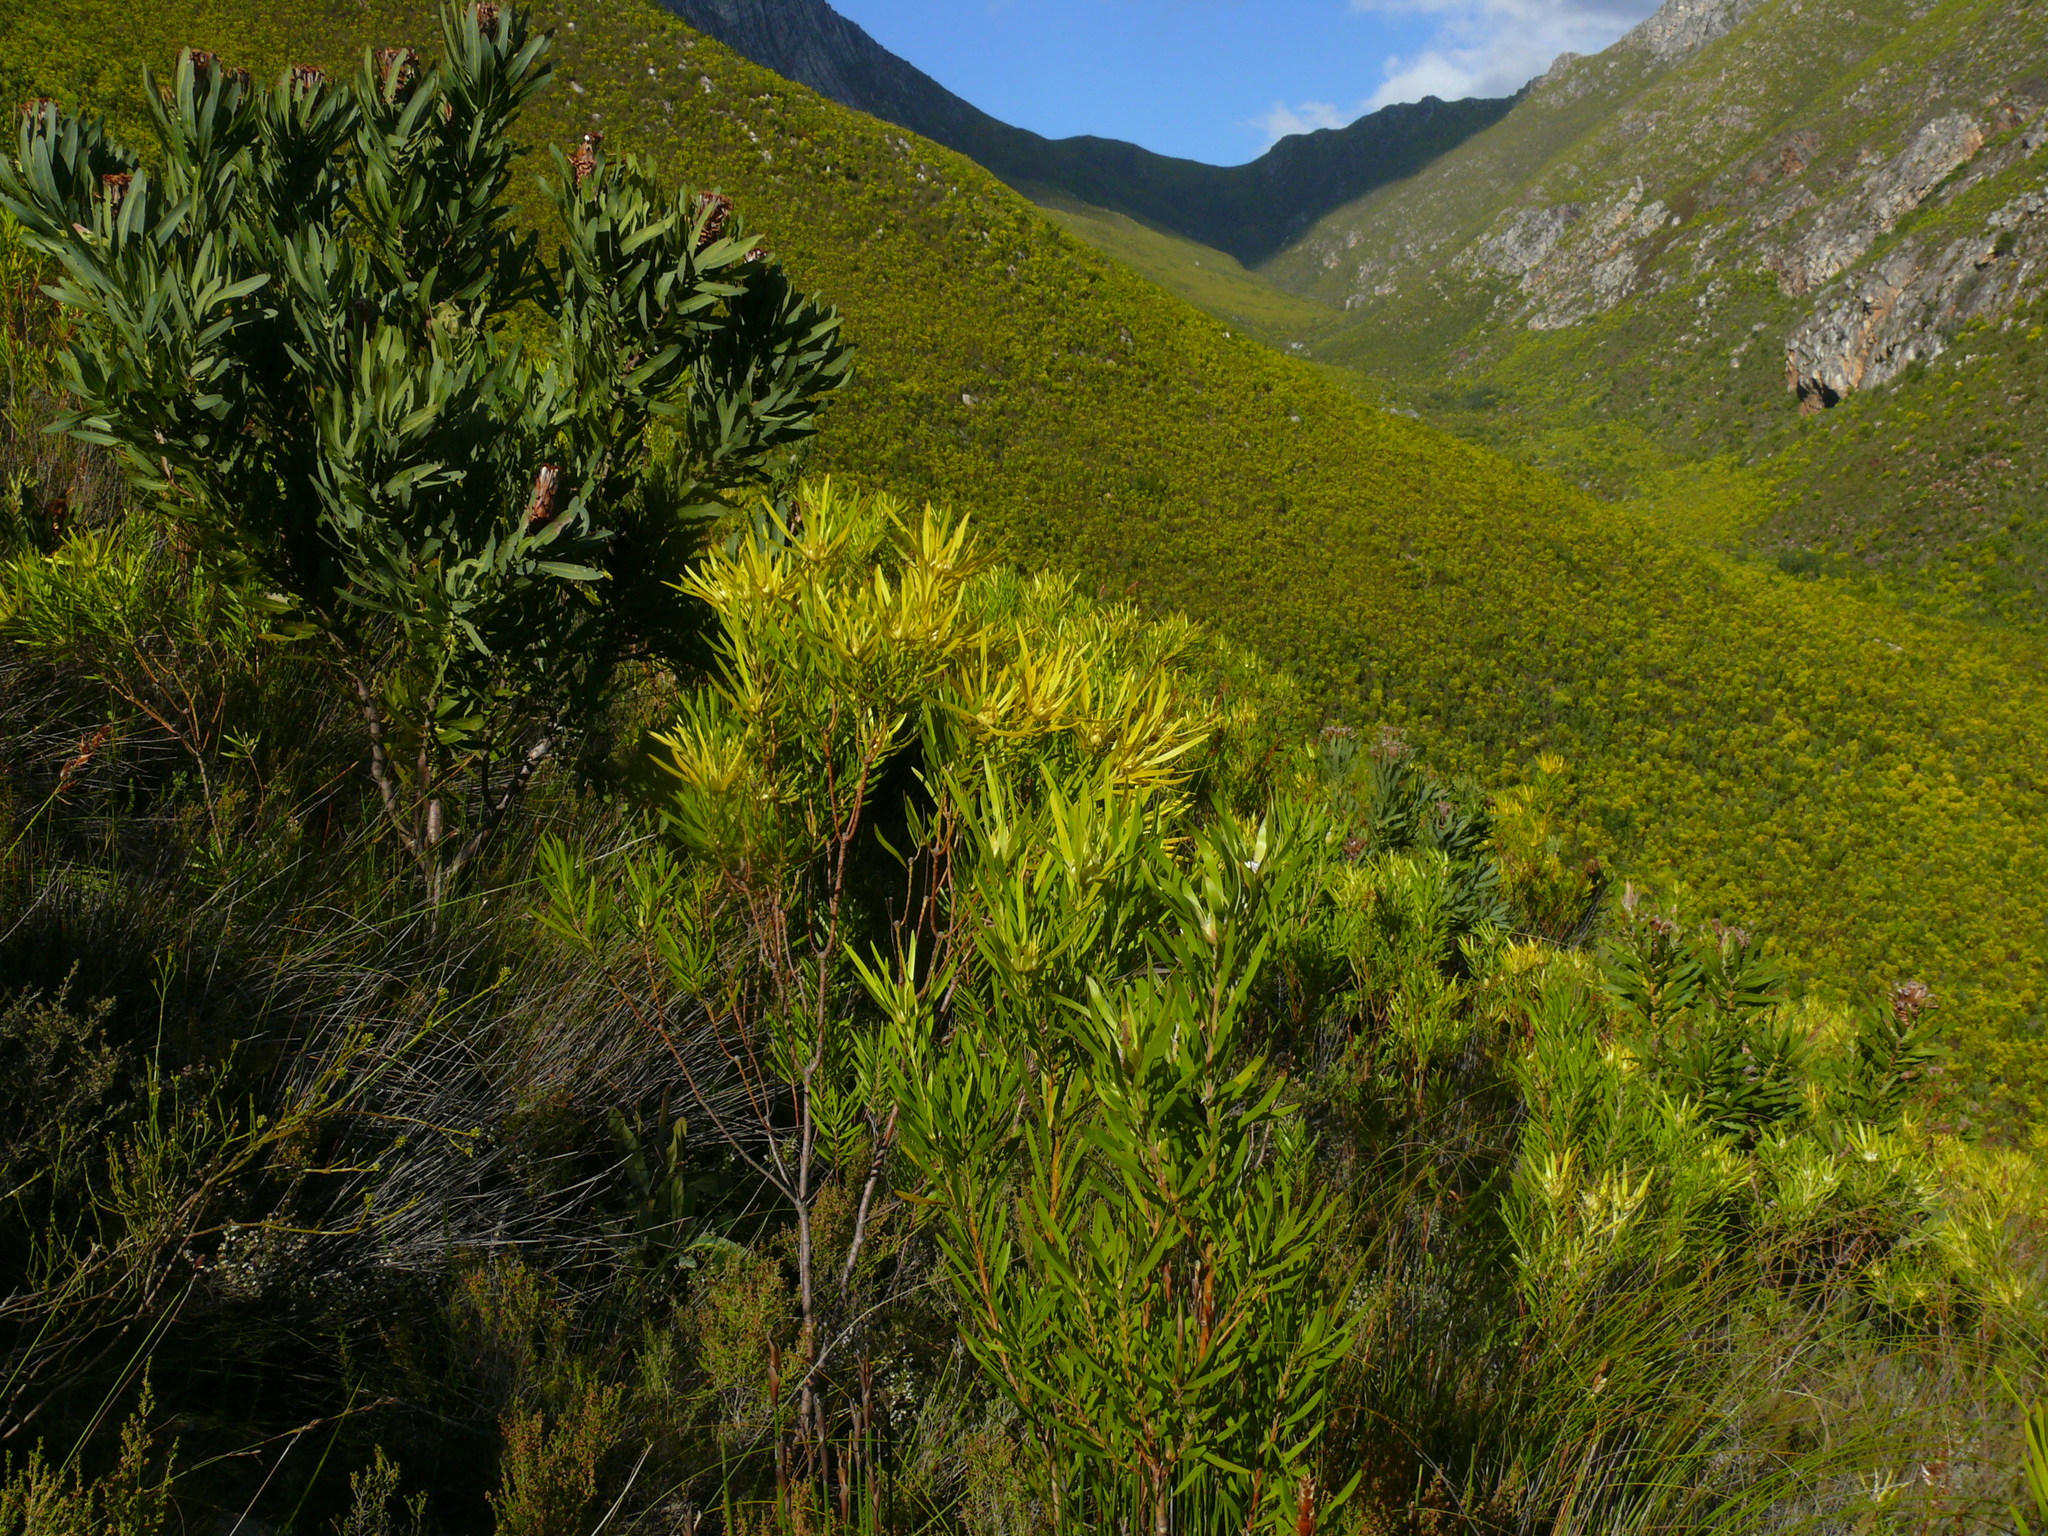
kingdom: Plantae
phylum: Tracheophyta
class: Magnoliopsida
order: Proteales
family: Proteaceae
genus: Leucadendron
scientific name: Leucadendron eucalyptifolium
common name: Gum-leaved conebush
